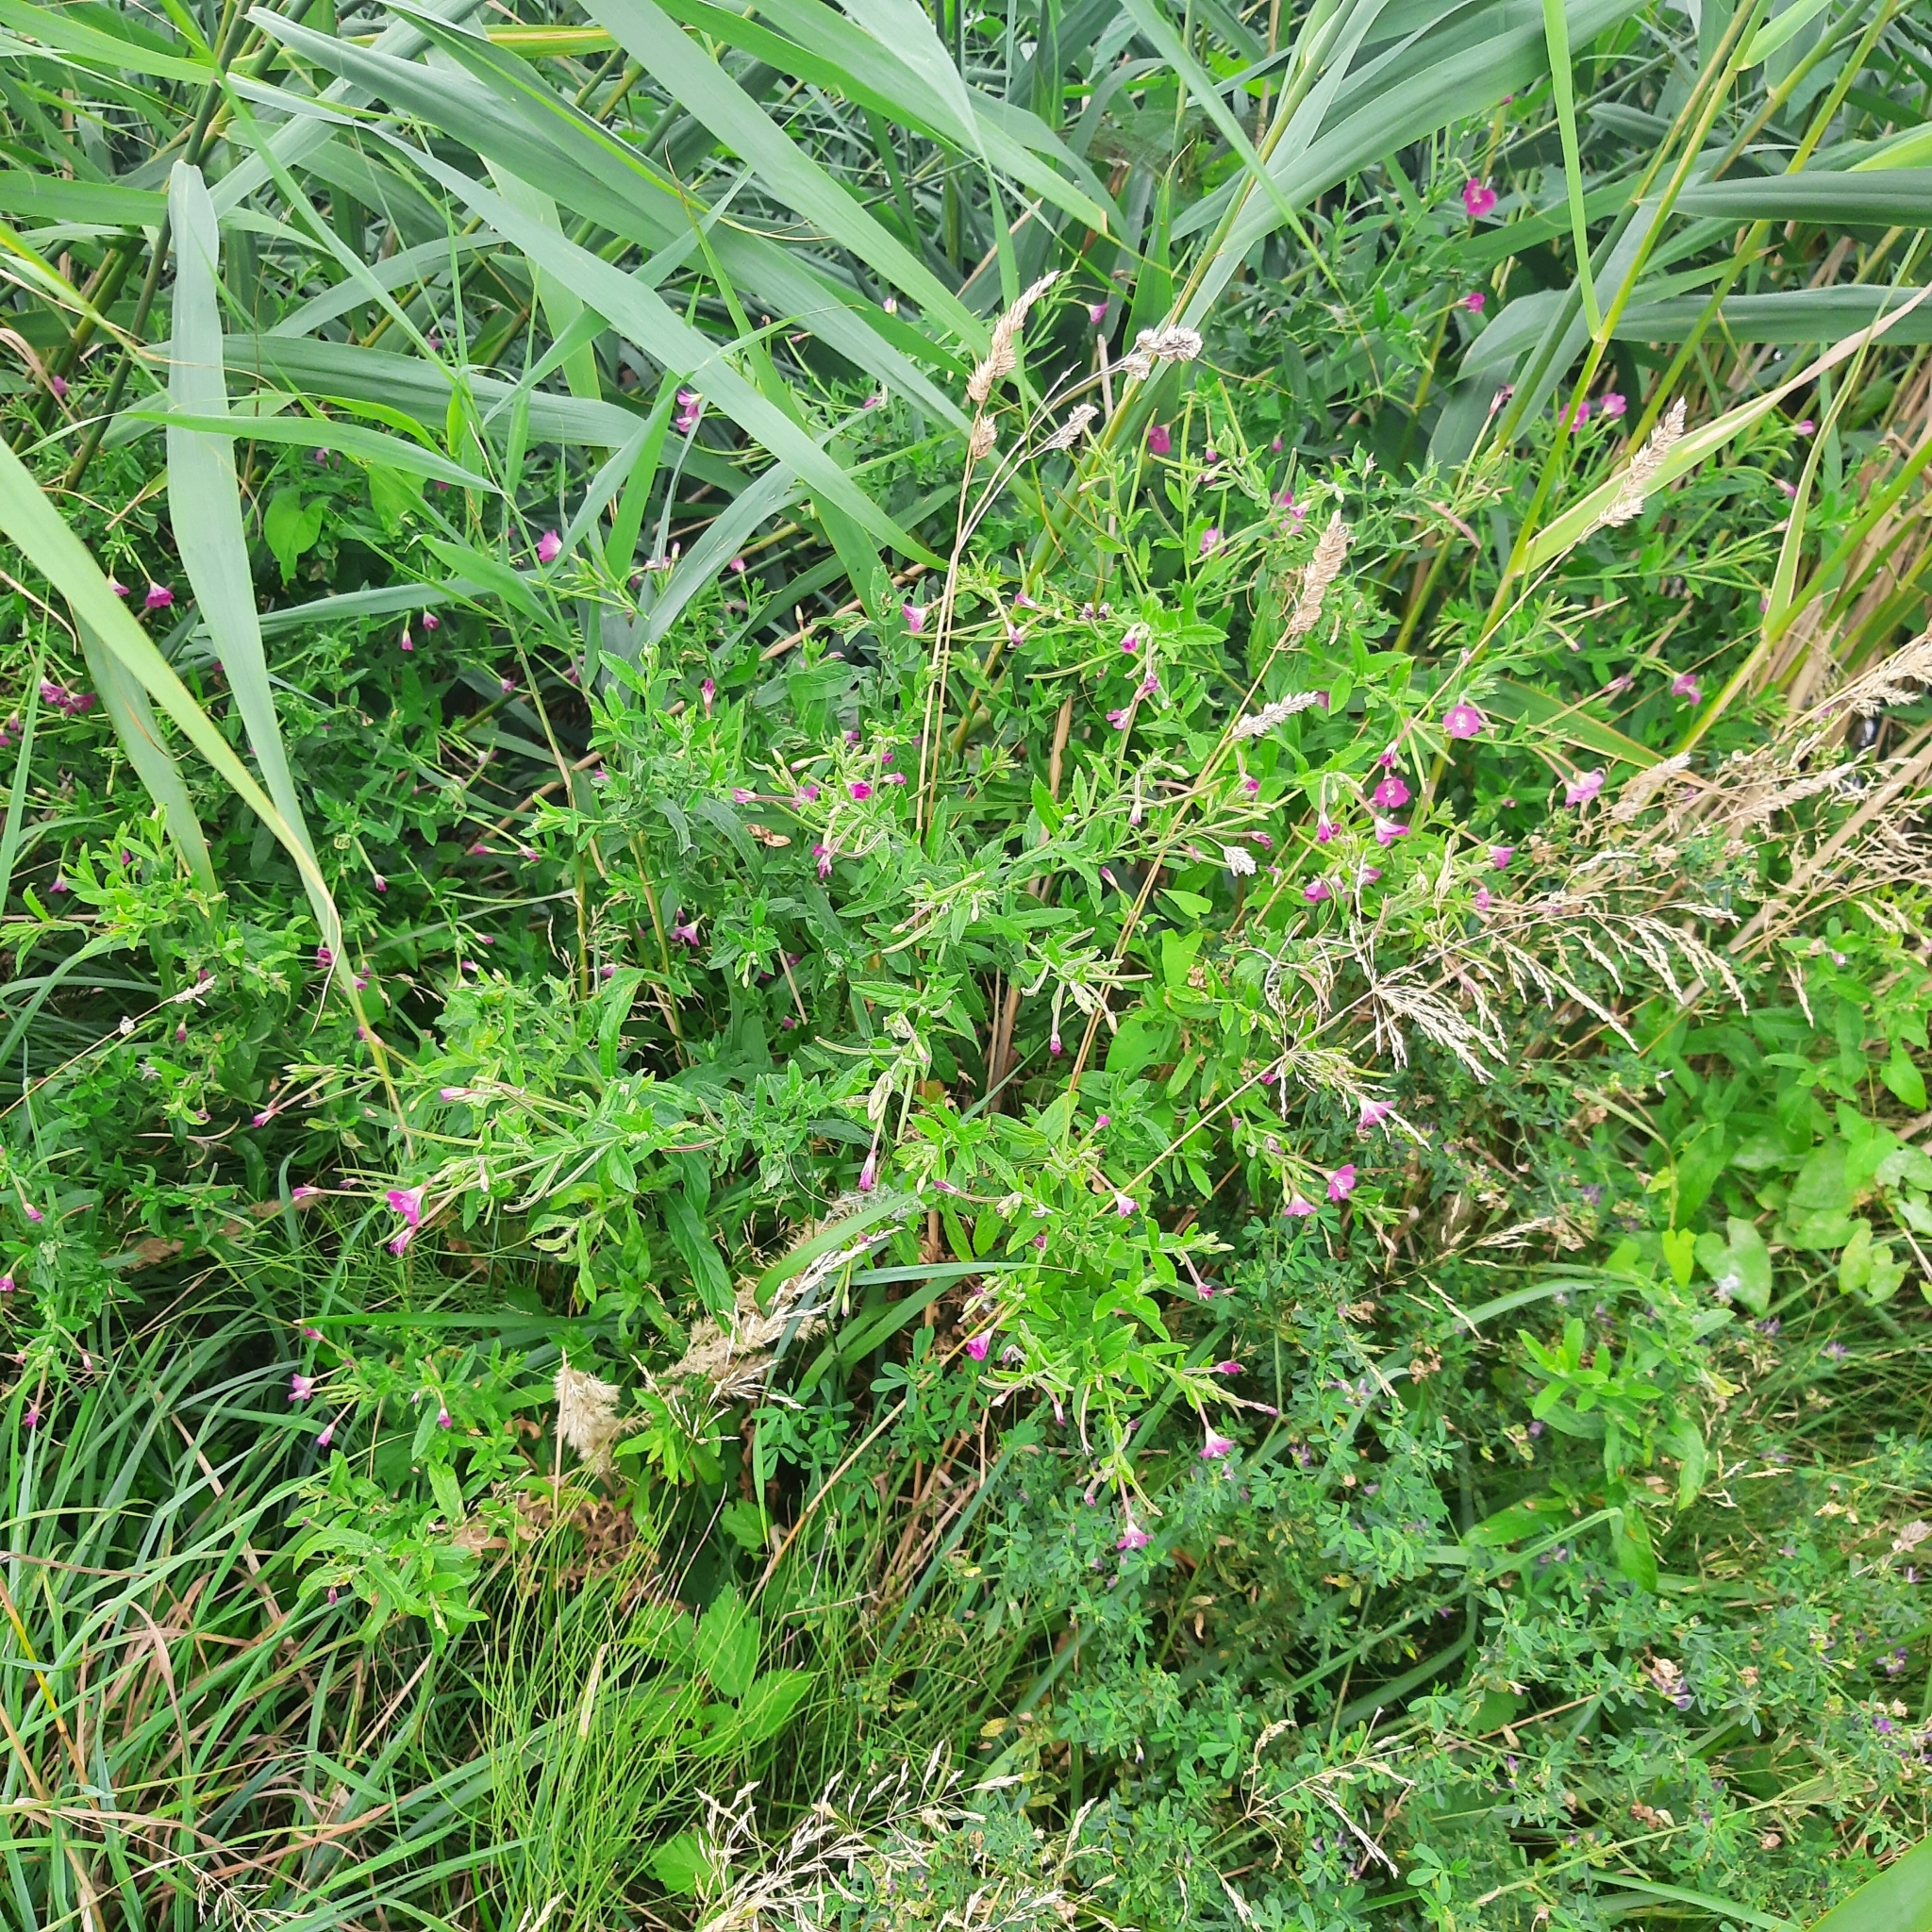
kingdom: Plantae
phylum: Tracheophyta
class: Magnoliopsida
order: Myrtales
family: Onagraceae
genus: Epilobium
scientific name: Epilobium hirsutum
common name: Great willowherb
